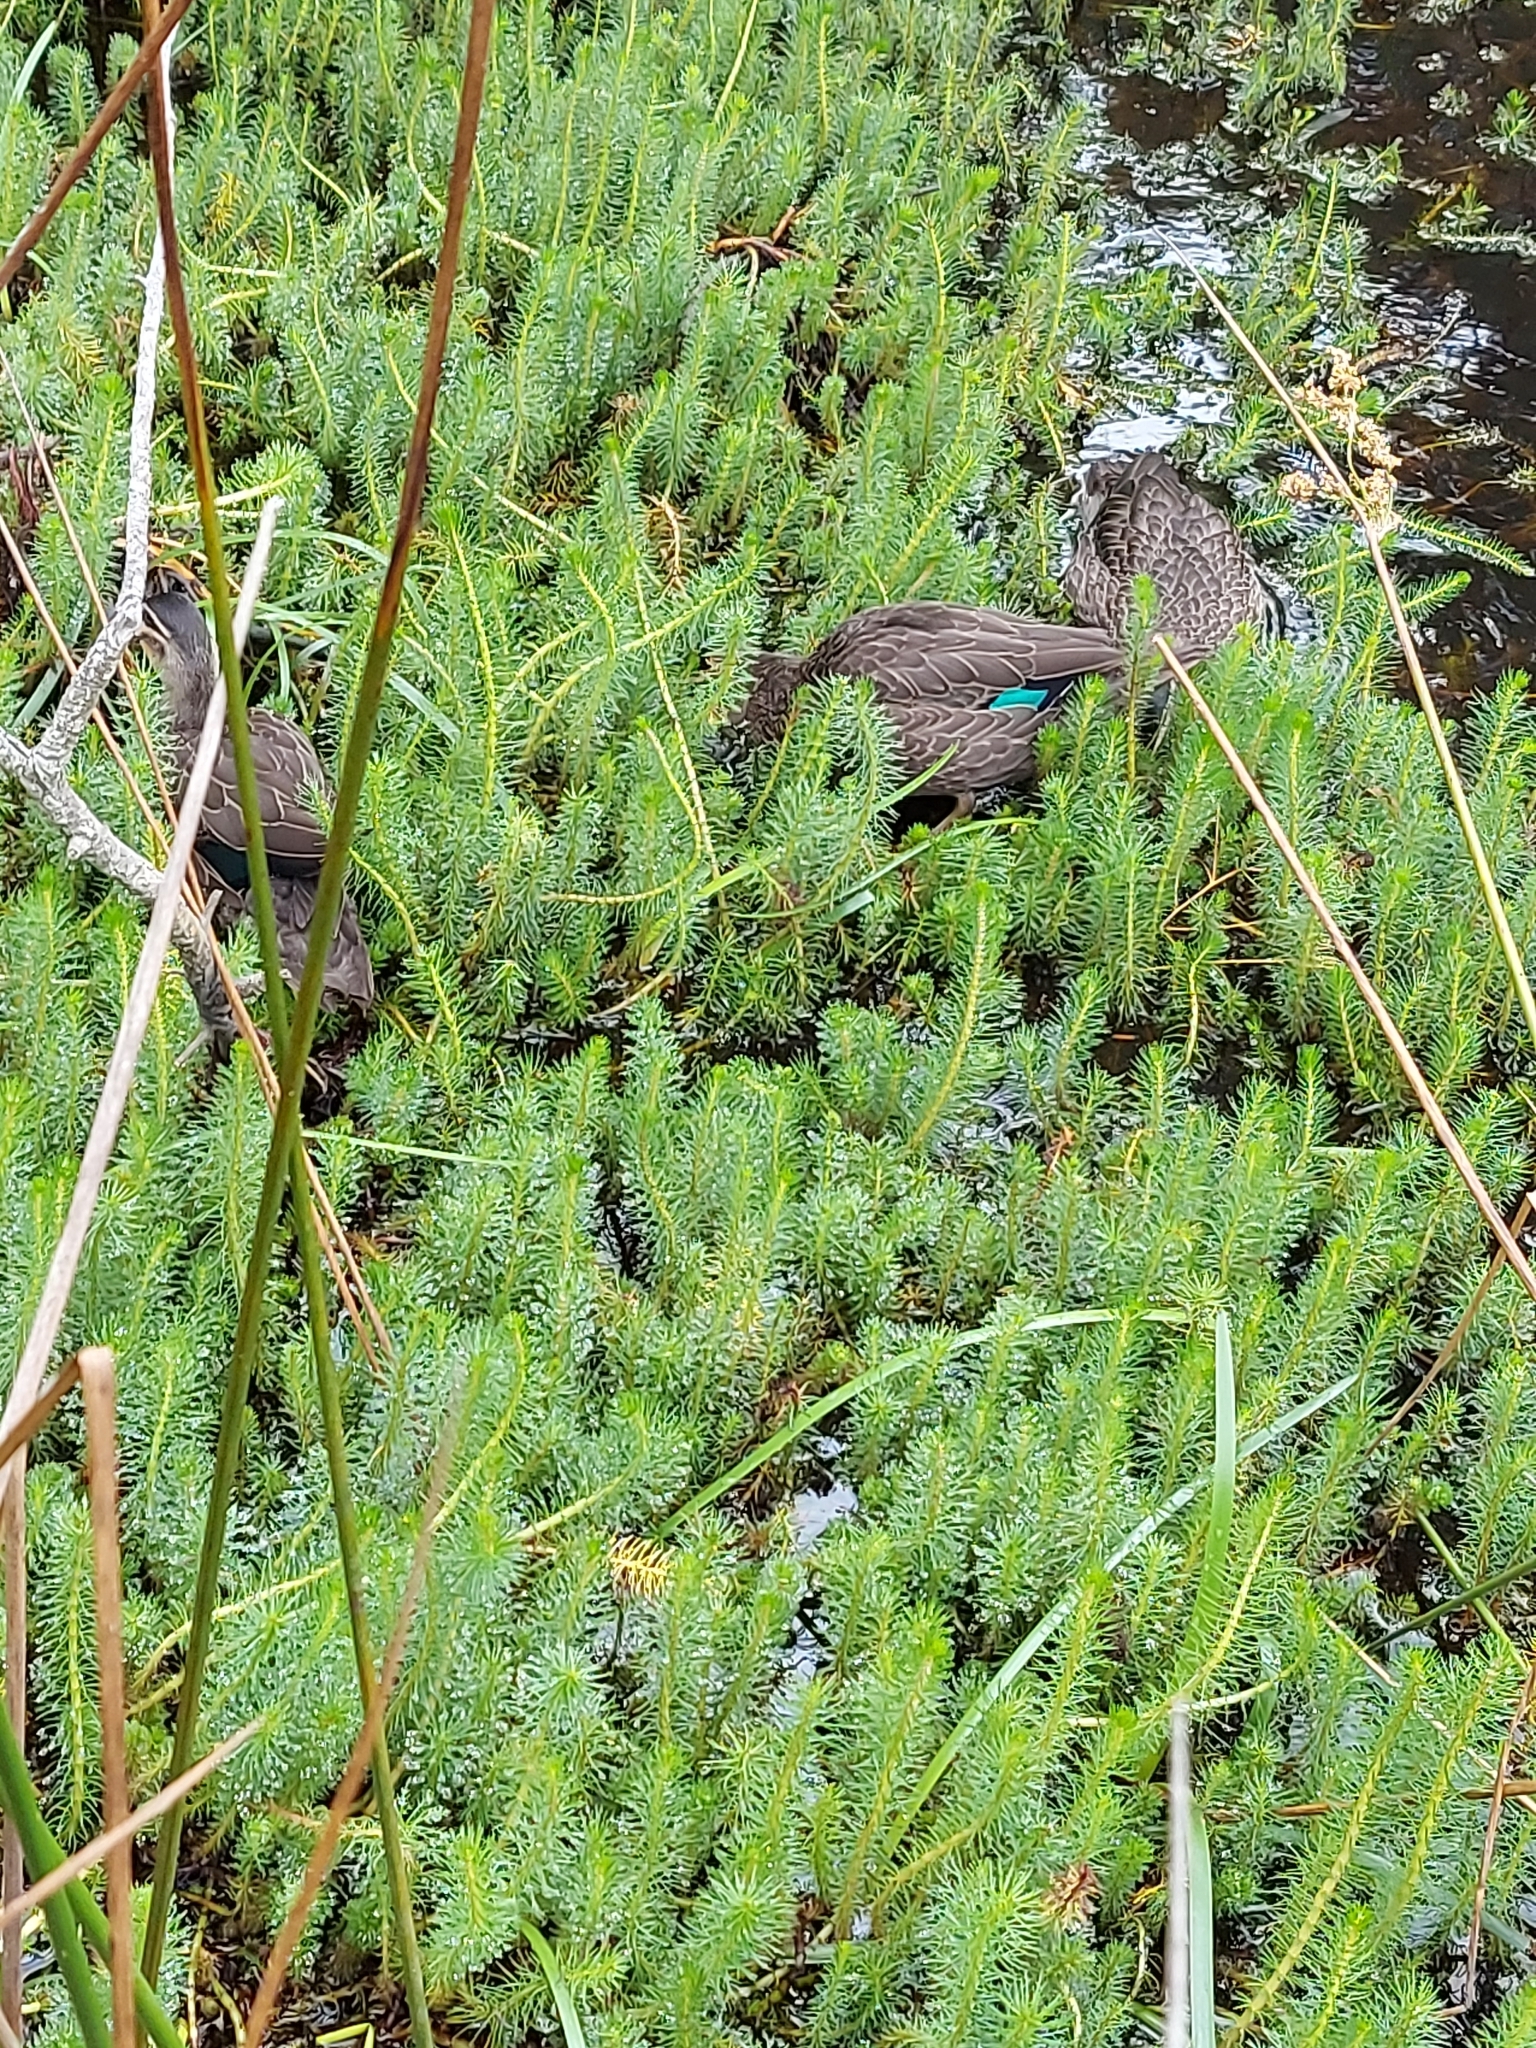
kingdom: Animalia
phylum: Chordata
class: Aves
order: Anseriformes
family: Anatidae
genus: Anas
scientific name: Anas superciliosa
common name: Pacific black duck
